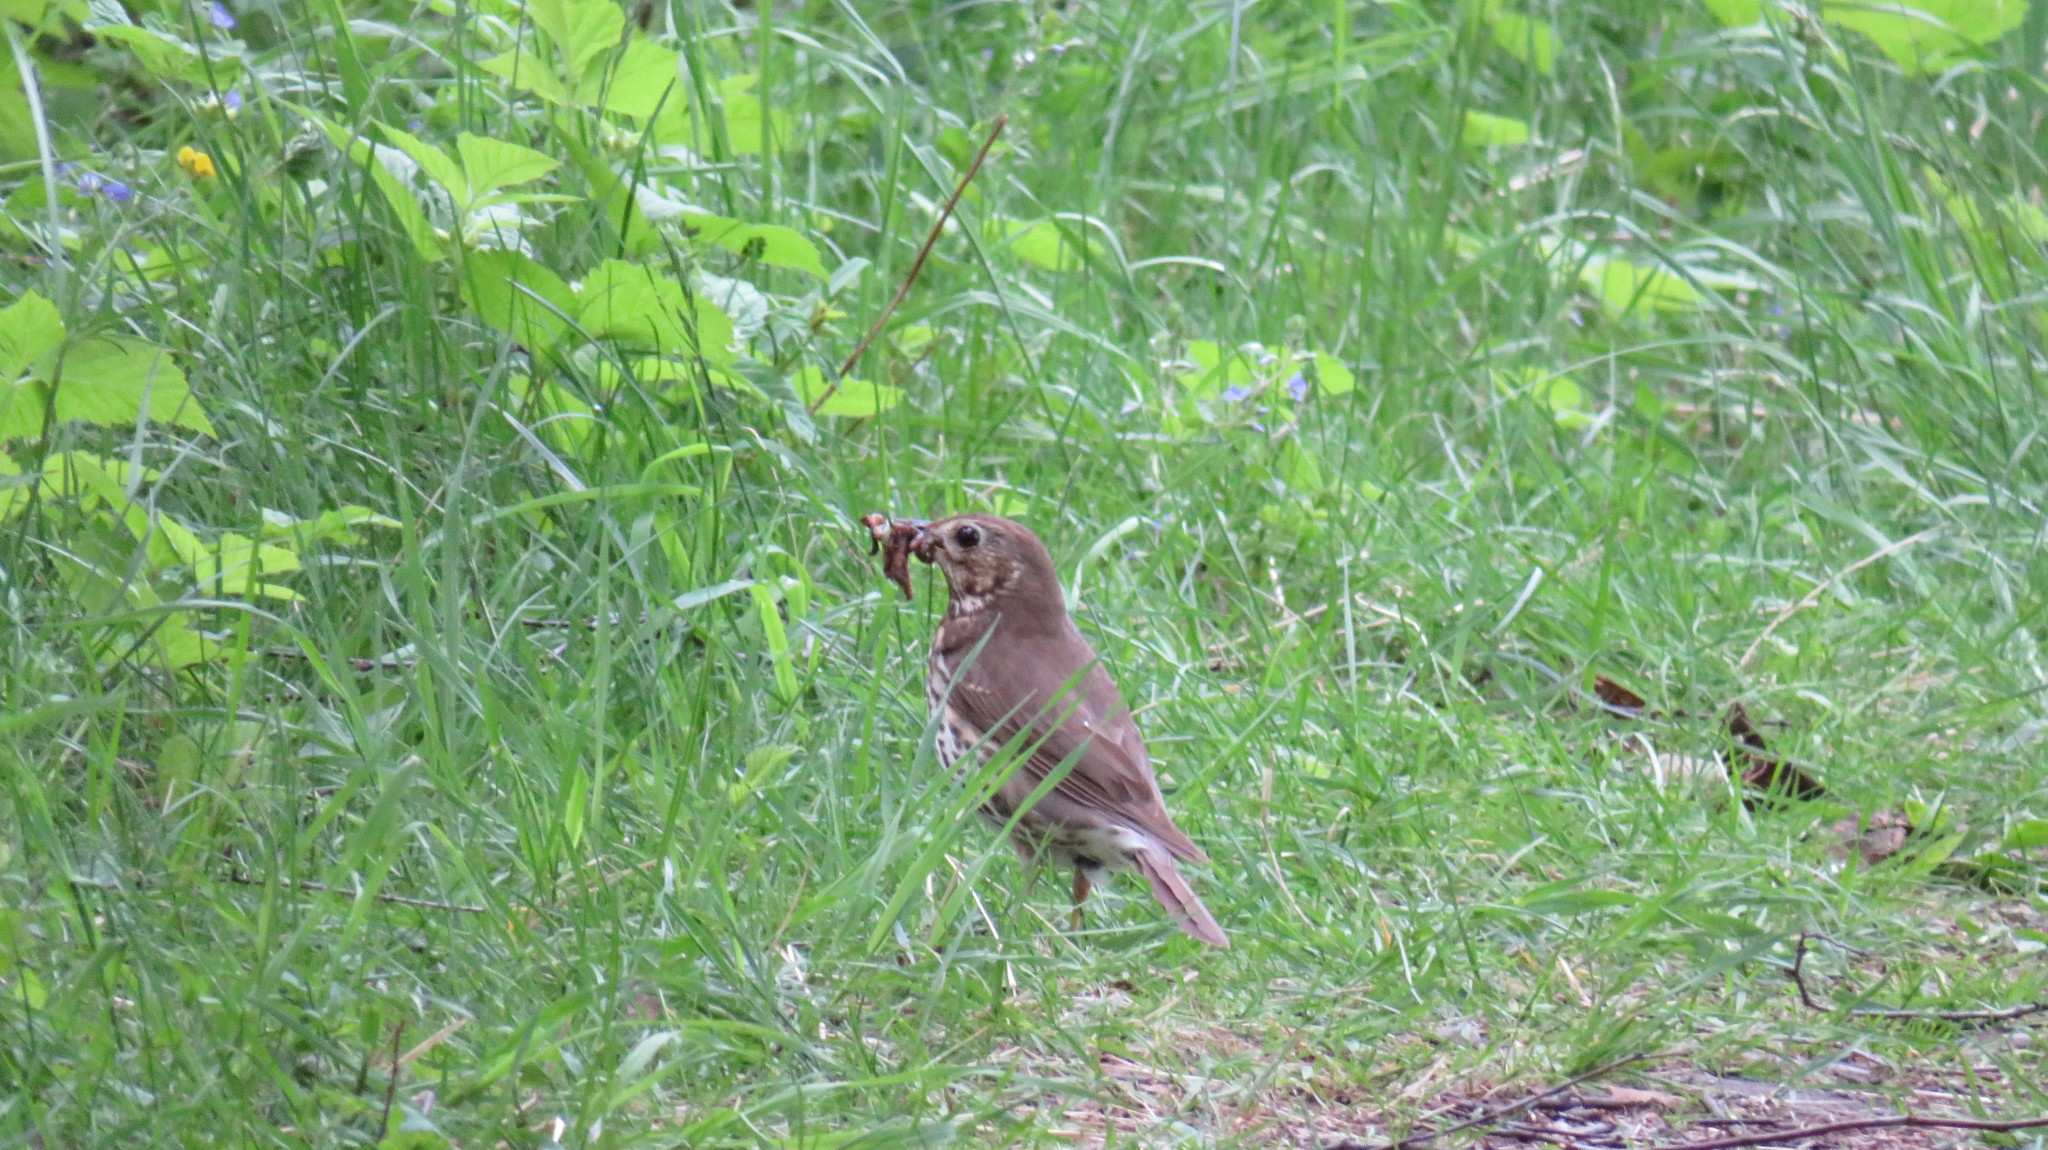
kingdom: Animalia
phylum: Chordata
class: Aves
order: Passeriformes
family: Turdidae
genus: Turdus
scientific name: Turdus philomelos
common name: Song thrush
